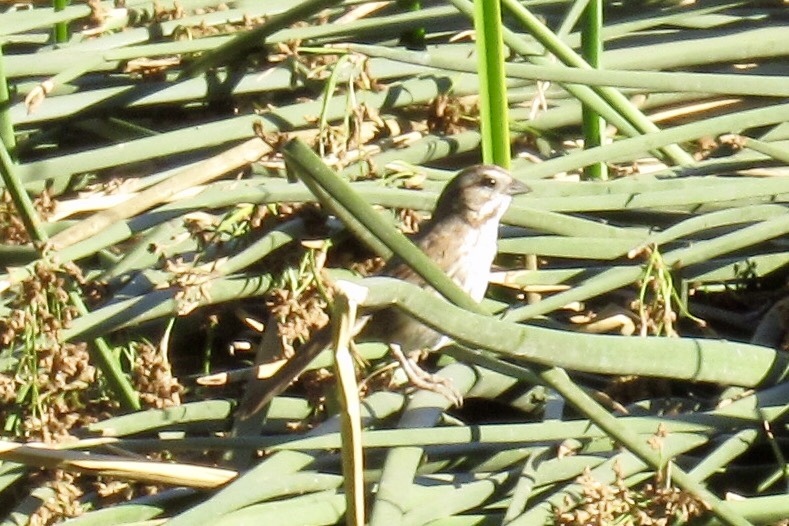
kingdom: Animalia
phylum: Chordata
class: Aves
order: Passeriformes
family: Passerellidae
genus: Melospiza
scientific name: Melospiza melodia
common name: Song sparrow
